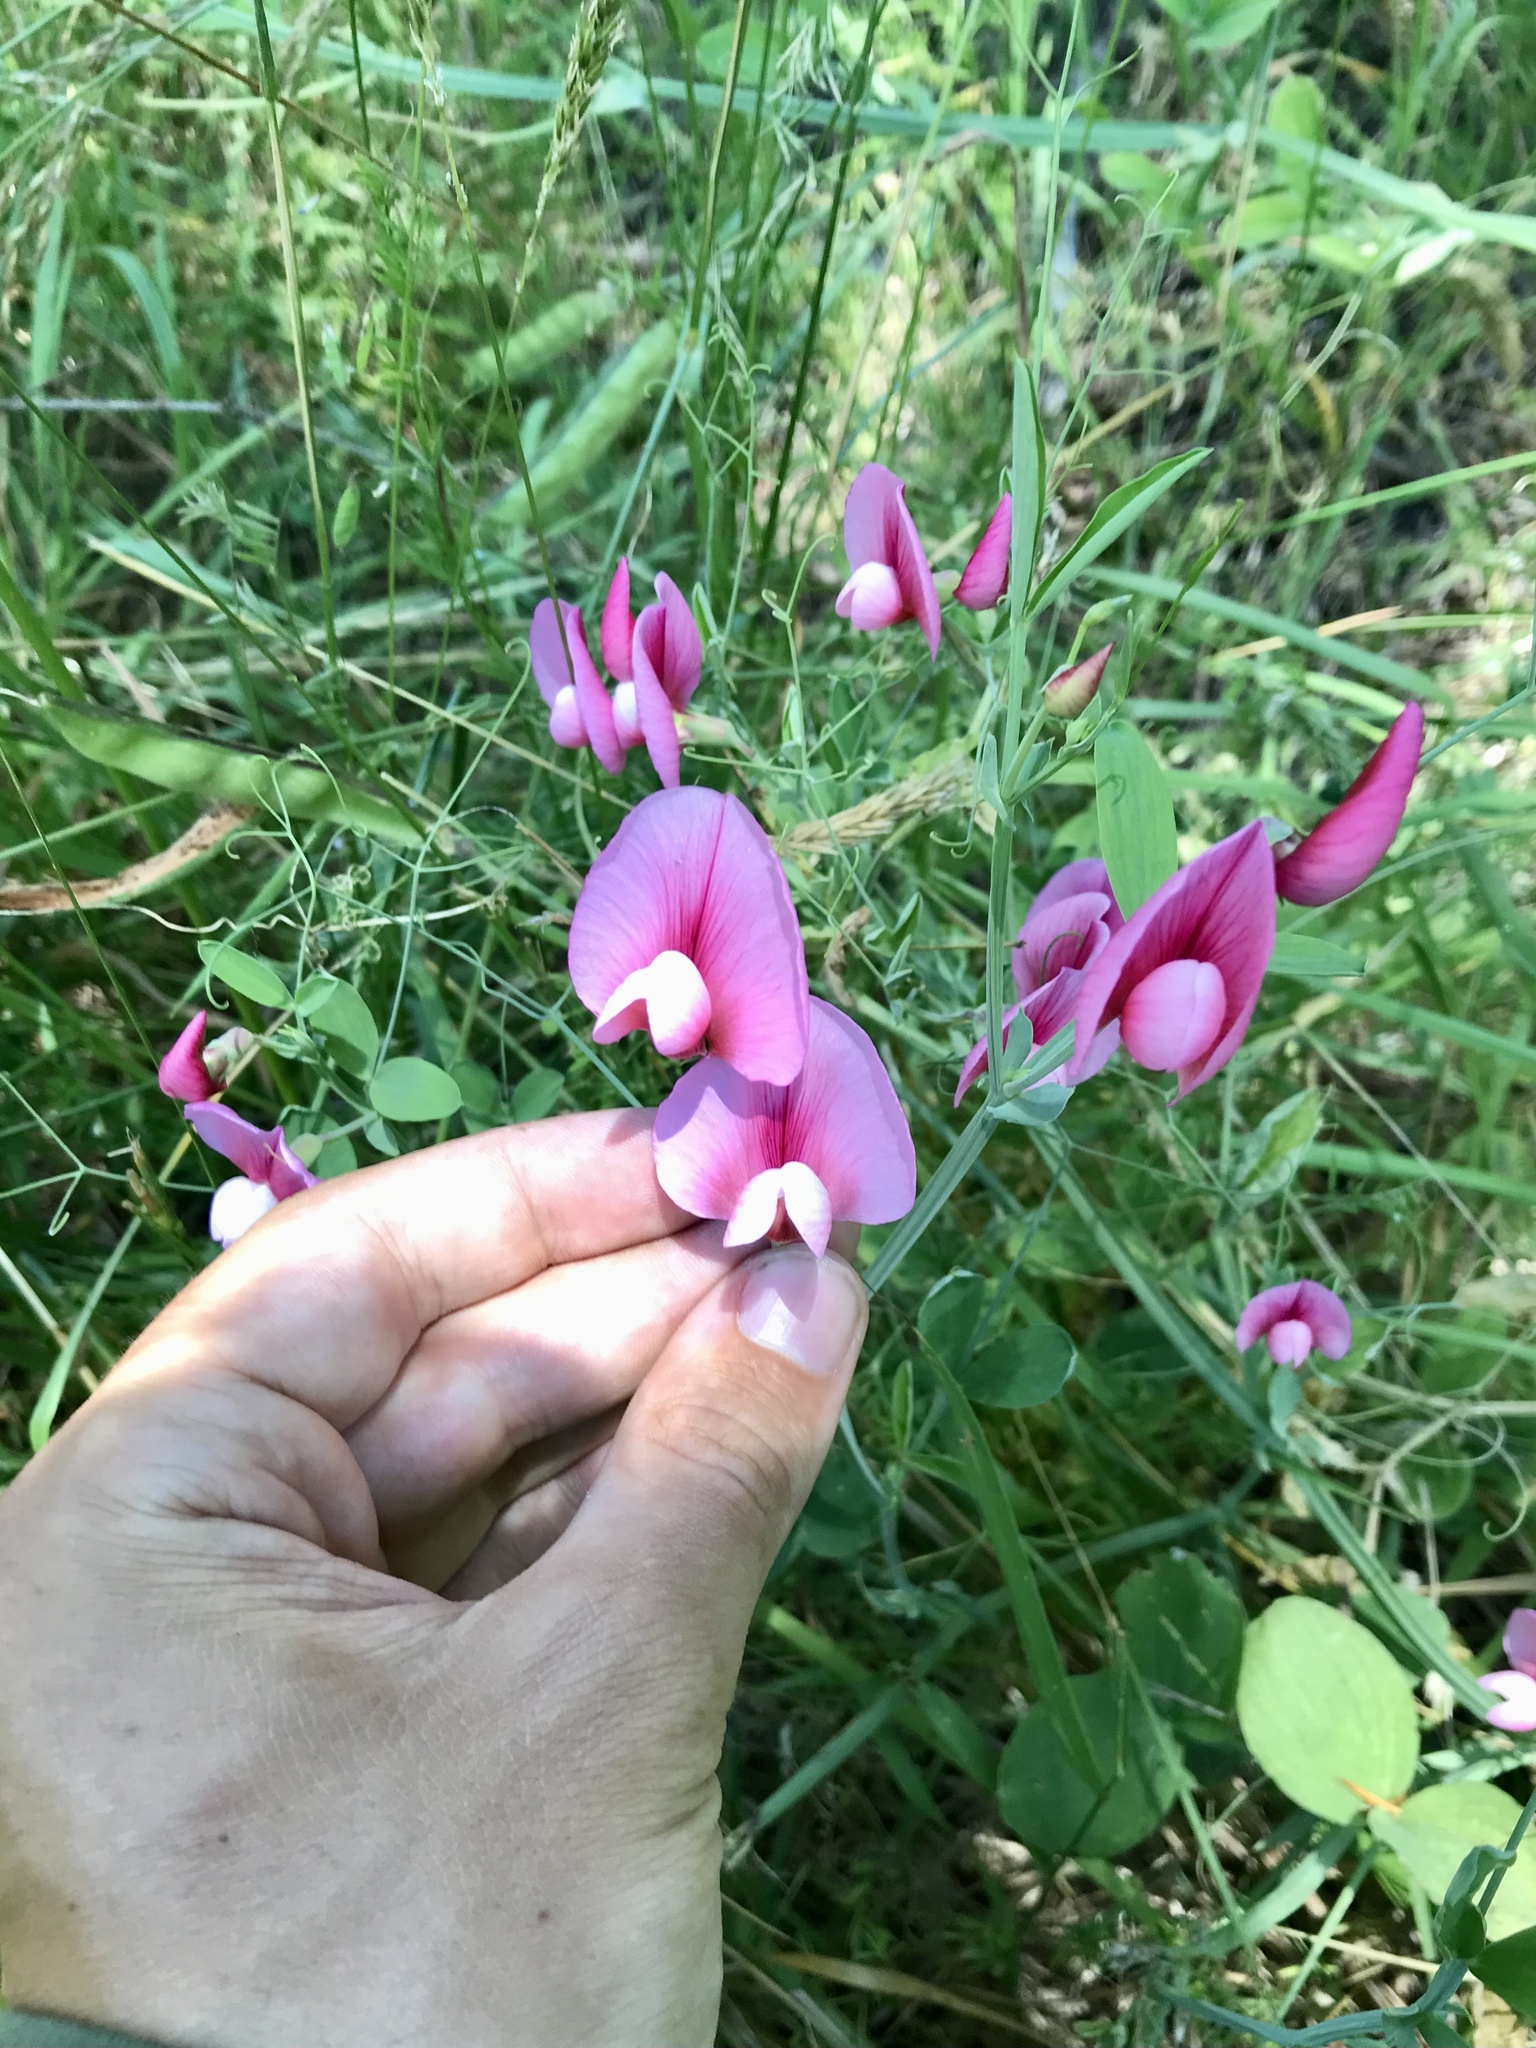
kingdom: Plantae
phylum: Tracheophyta
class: Magnoliopsida
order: Fabales
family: Fabaceae
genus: Lathyrus
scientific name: Lathyrus tingitanus
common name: Tangier pea
